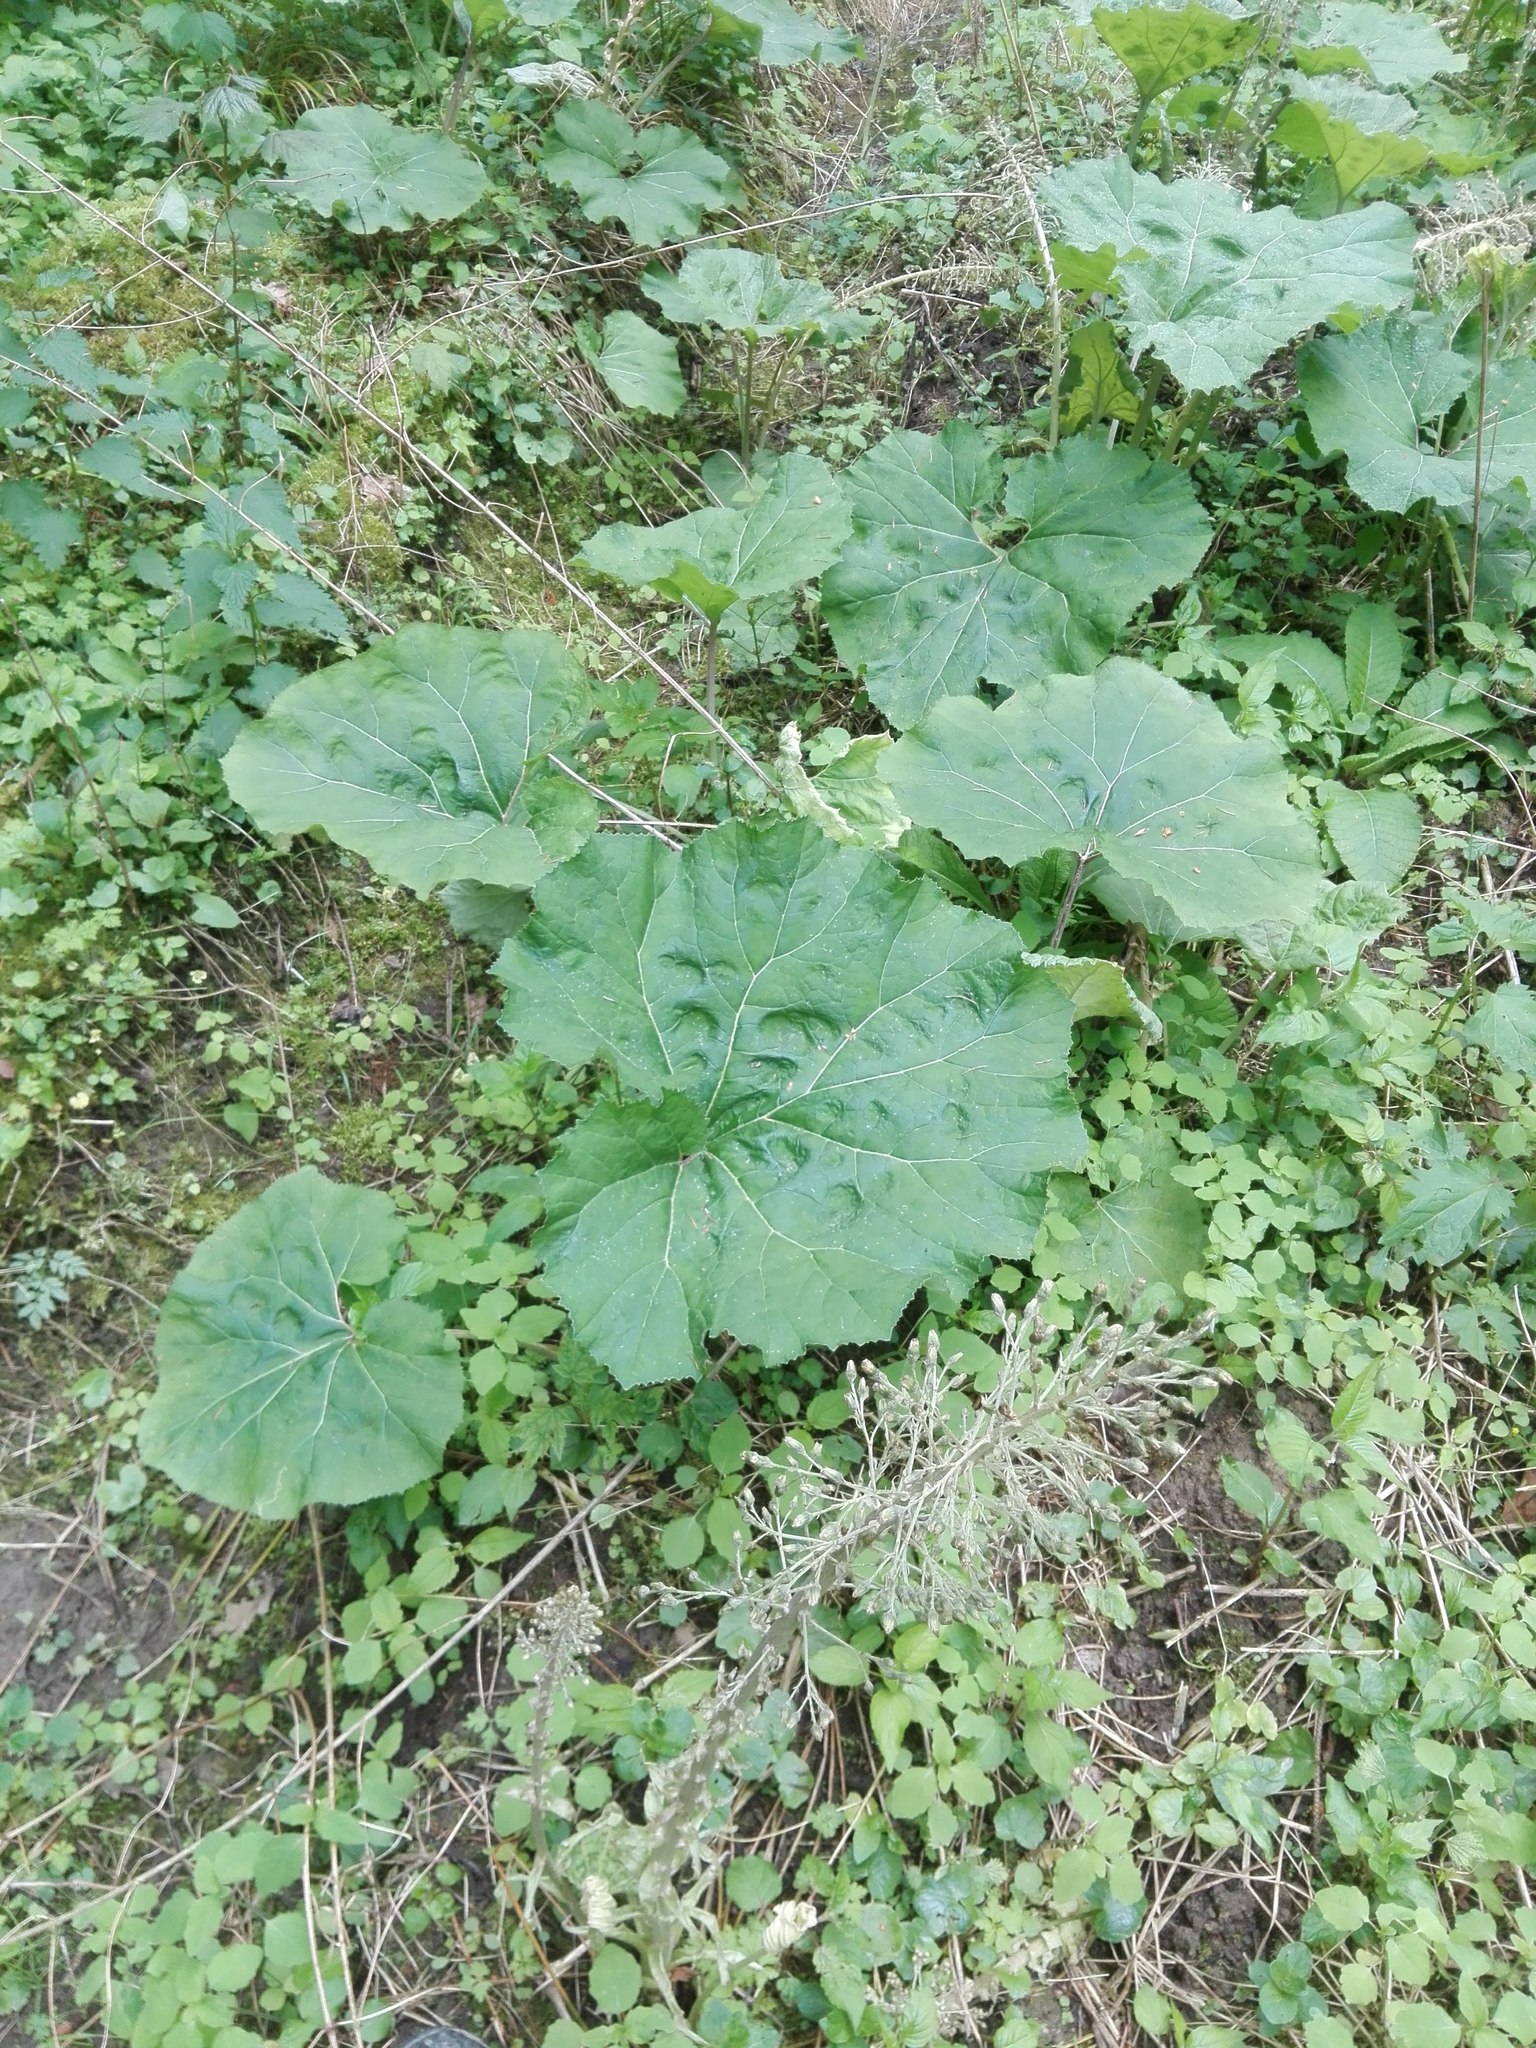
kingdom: Plantae
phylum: Tracheophyta
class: Magnoliopsida
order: Asterales
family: Asteraceae
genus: Petasites
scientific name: Petasites hybridus
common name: Butterbur
